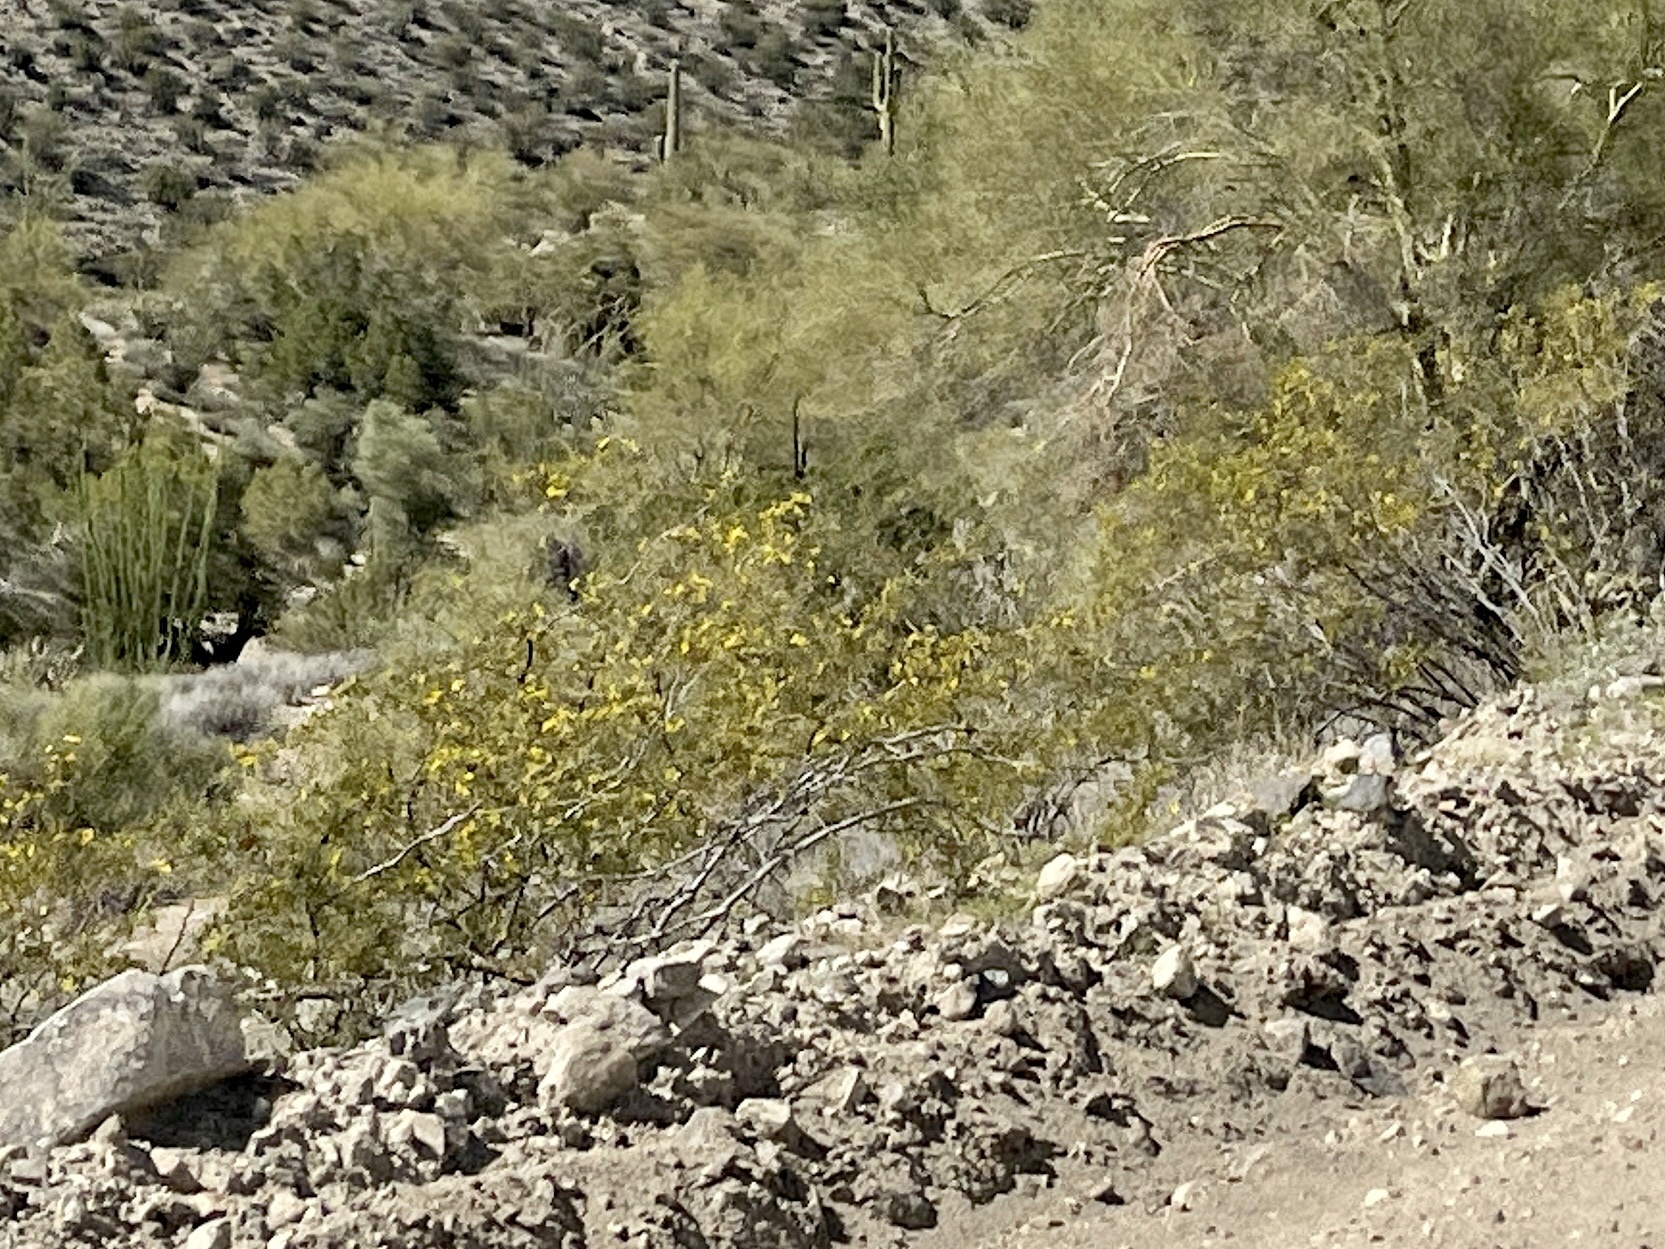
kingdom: Plantae
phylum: Tracheophyta
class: Magnoliopsida
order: Zygophyllales
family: Zygophyllaceae
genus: Larrea
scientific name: Larrea tridentata
